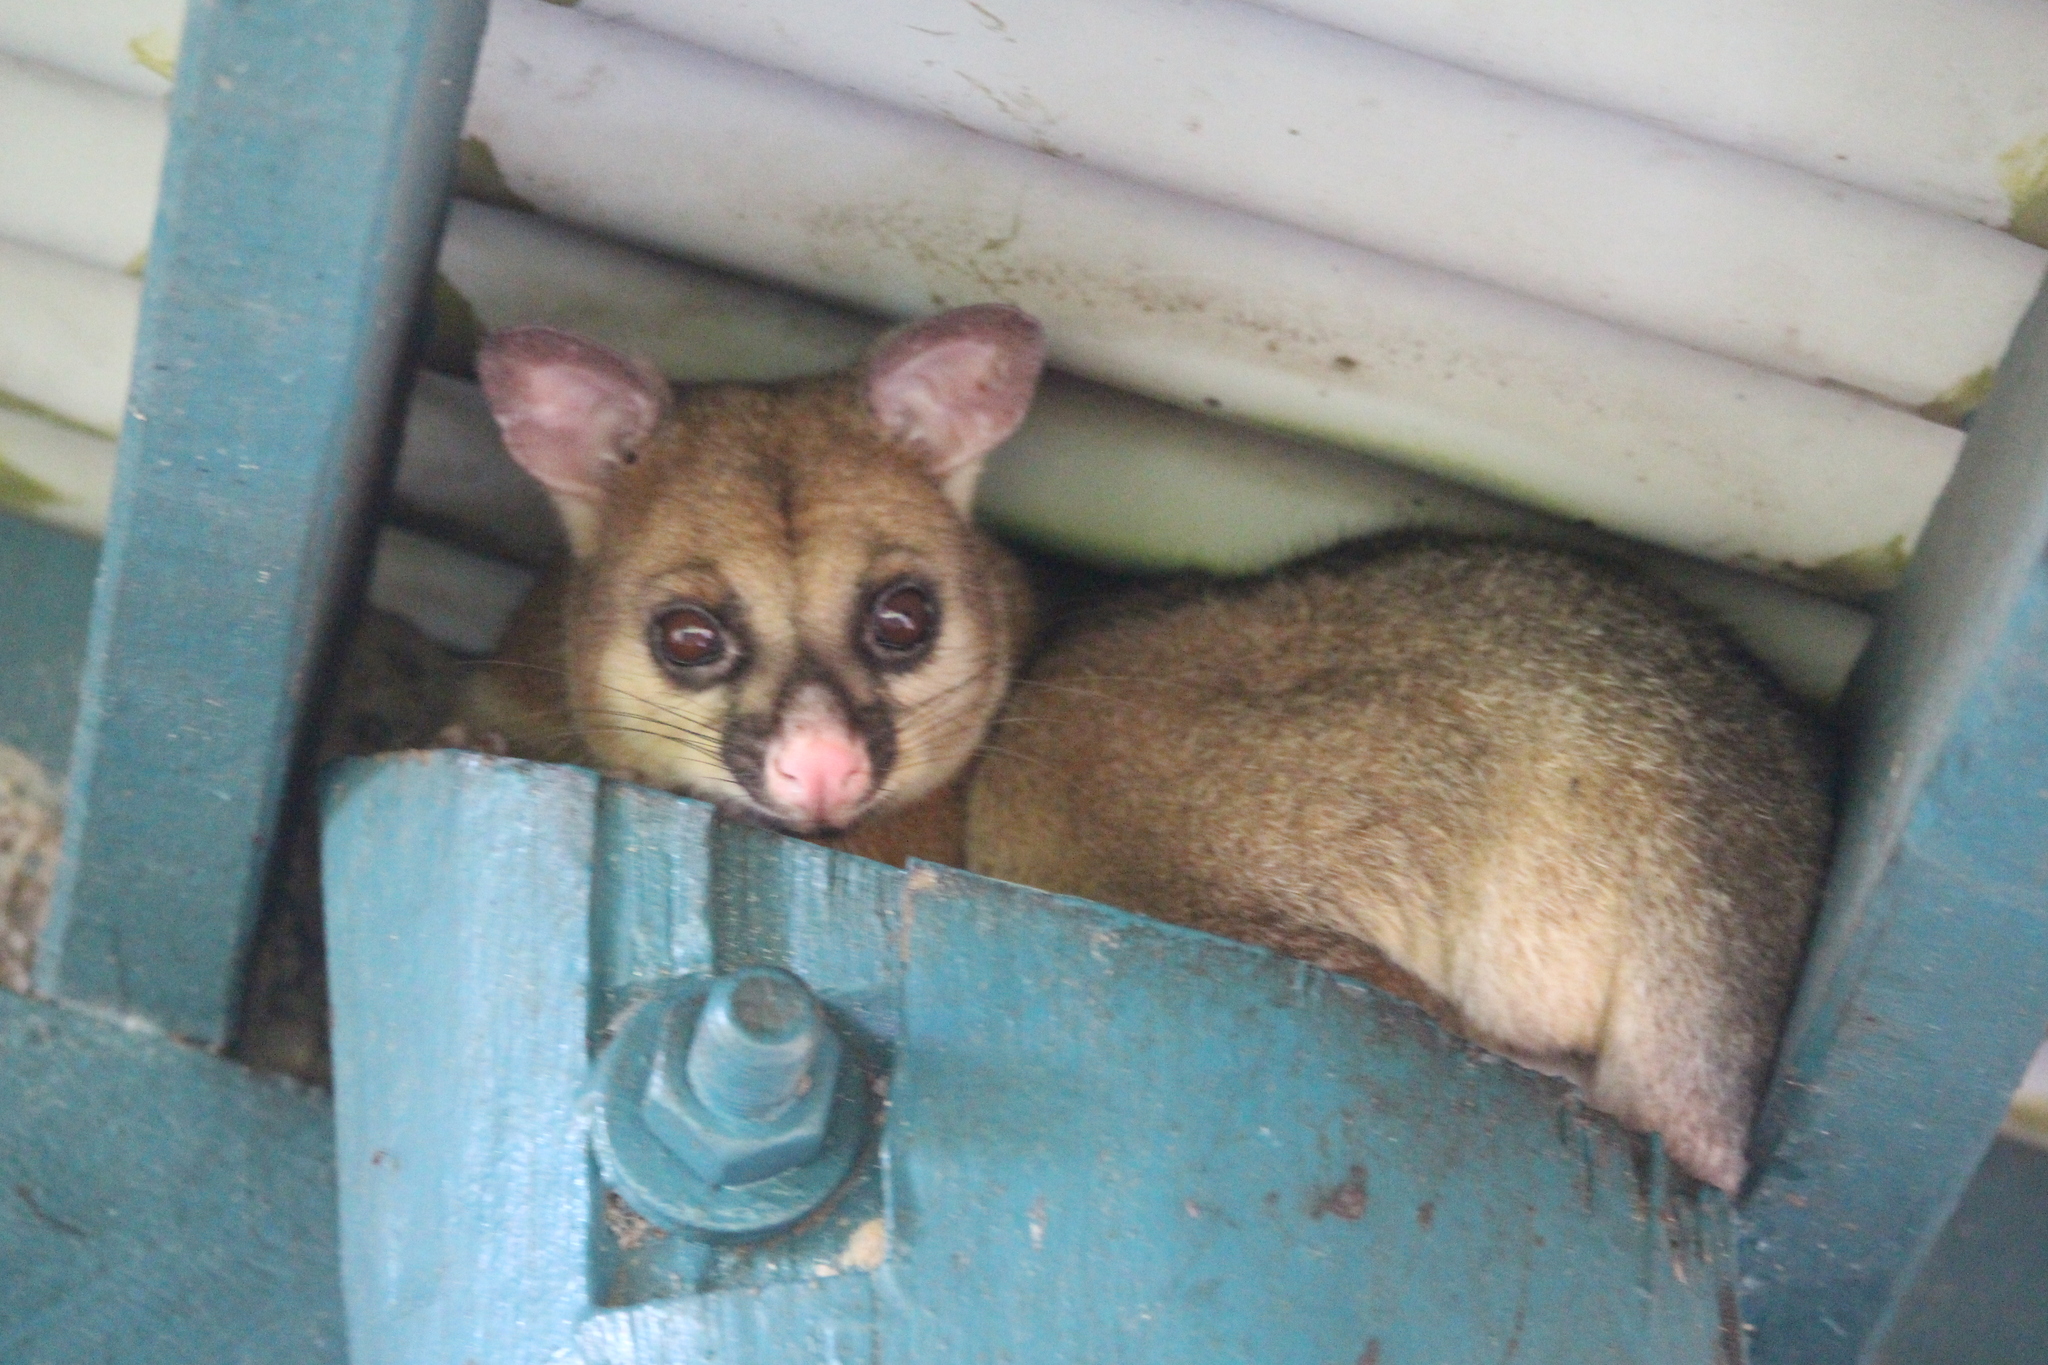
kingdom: Animalia
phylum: Chordata
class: Mammalia
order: Diprotodontia
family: Phalangeridae
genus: Trichosurus
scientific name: Trichosurus vulpecula
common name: Common brushtail
